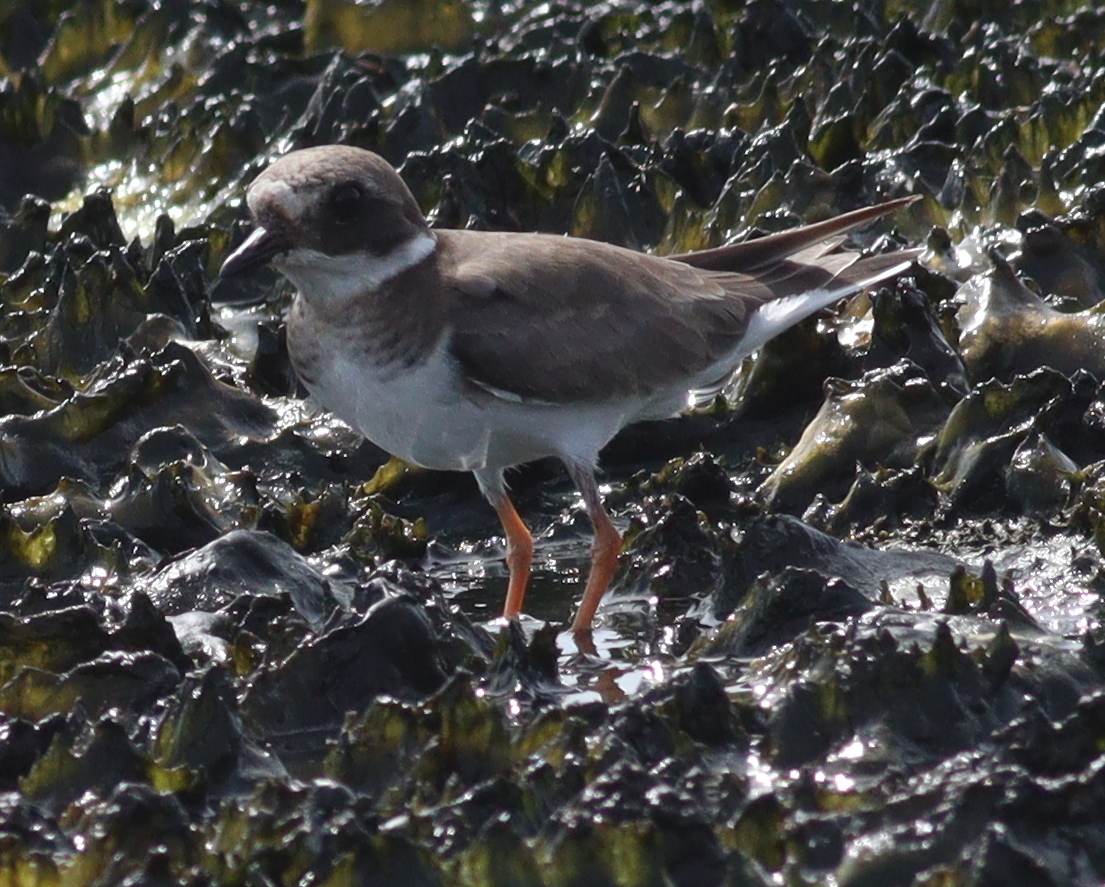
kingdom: Animalia
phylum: Chordata
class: Aves
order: Charadriiformes
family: Charadriidae
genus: Charadrius
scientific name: Charadrius hiaticula
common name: Common ringed plover
